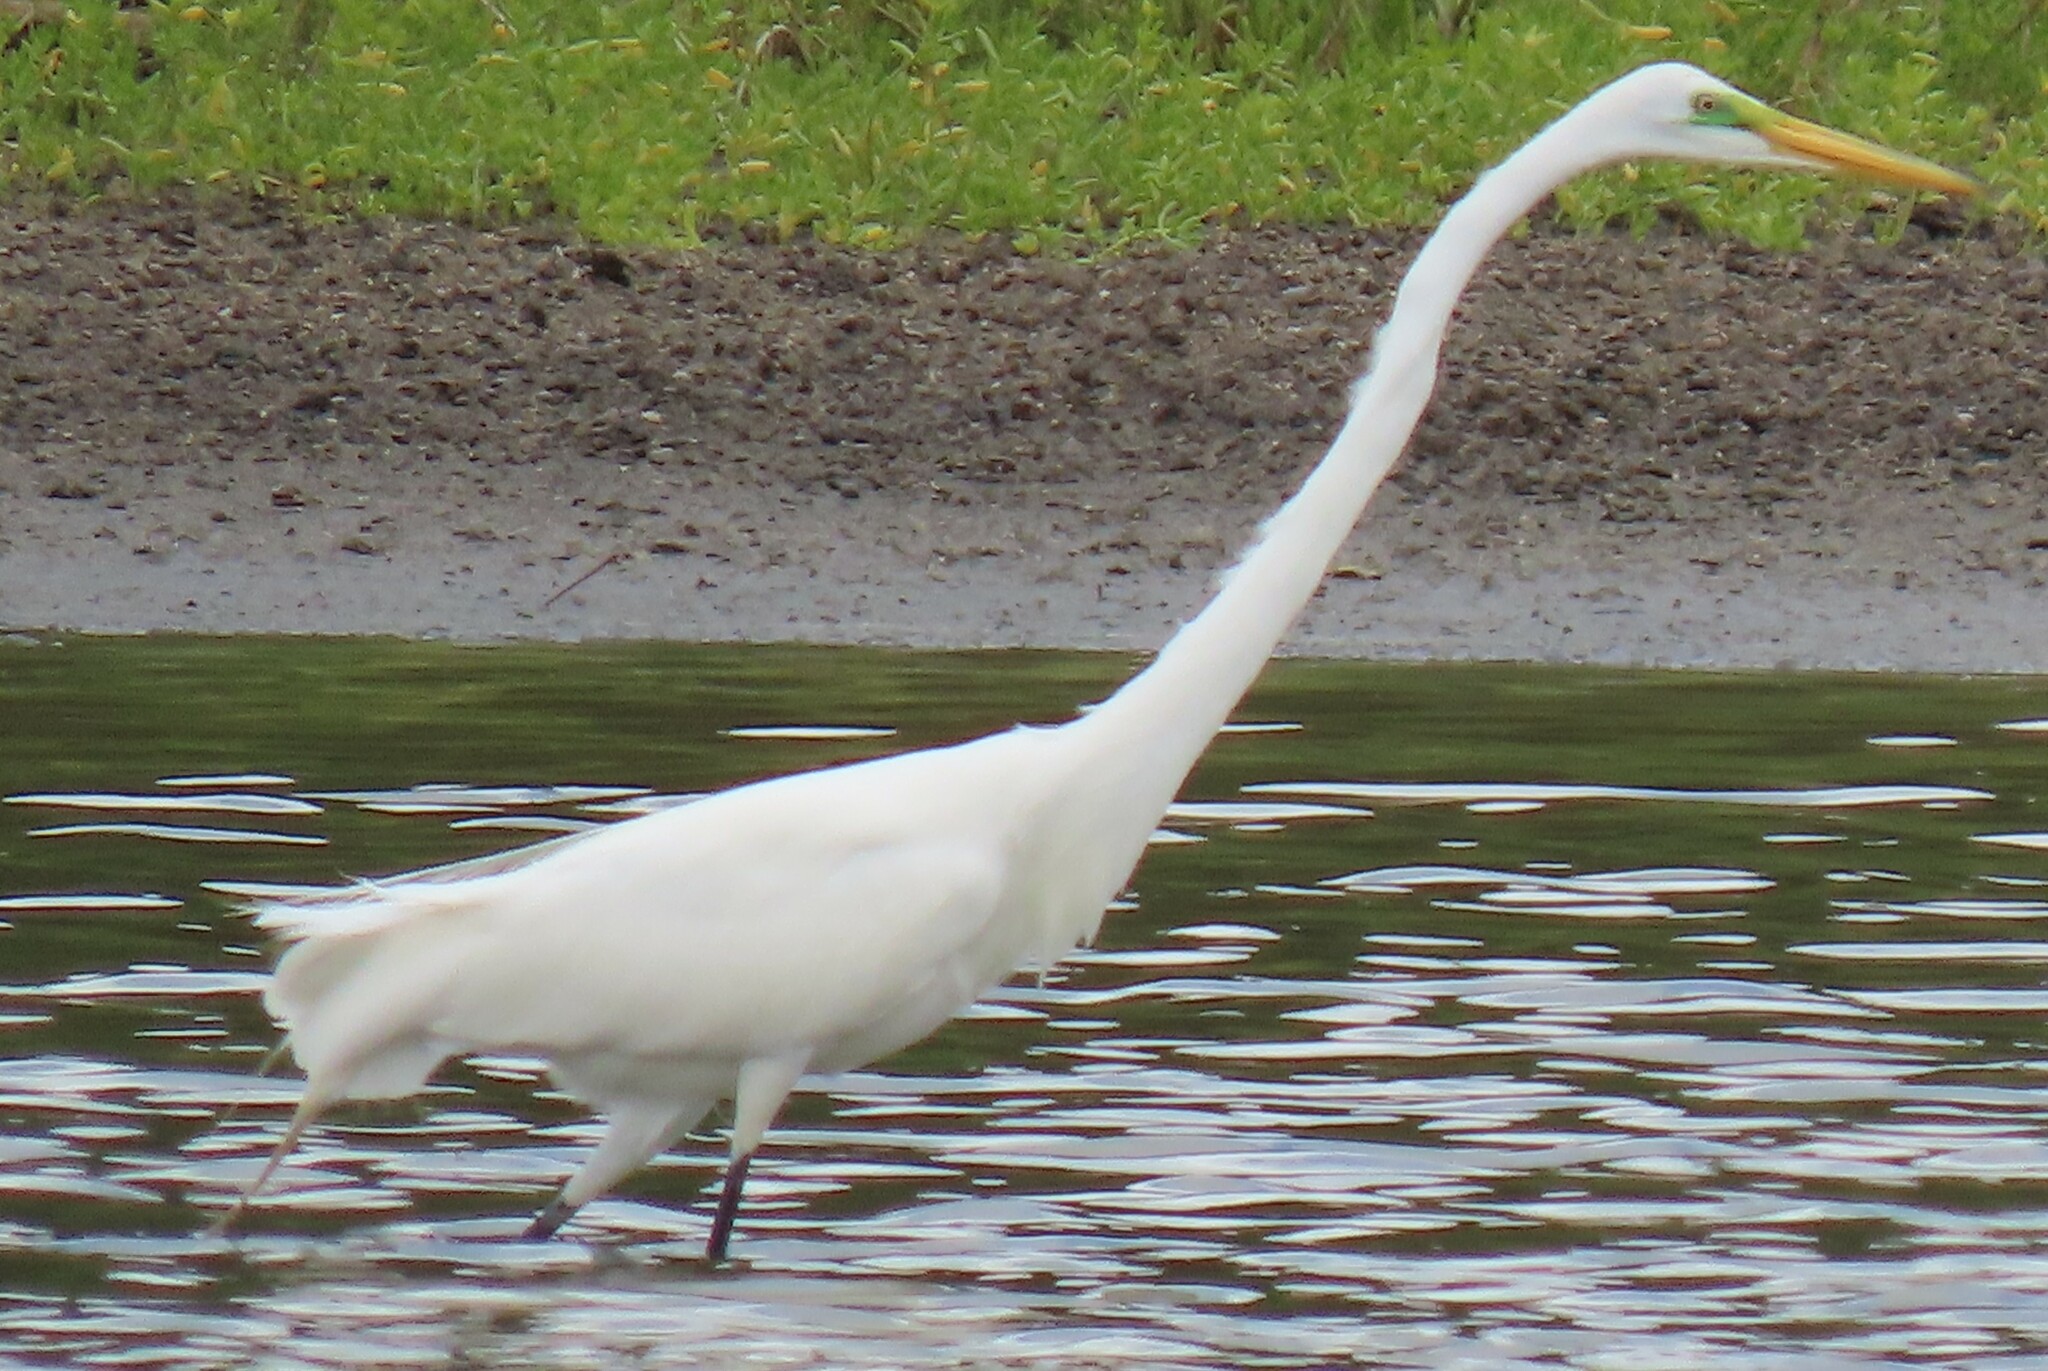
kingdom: Animalia
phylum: Chordata
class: Aves
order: Pelecaniformes
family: Ardeidae
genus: Ardea
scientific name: Ardea alba
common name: Great egret
